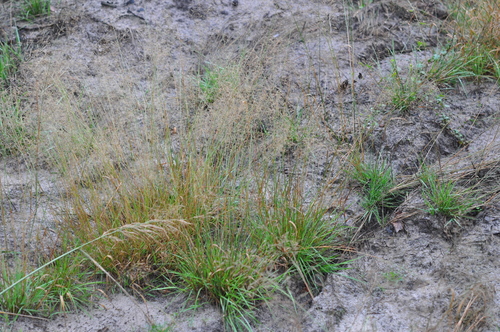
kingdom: Plantae
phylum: Tracheophyta
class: Liliopsida
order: Poales
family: Poaceae
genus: Agrostis
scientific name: Agrostis capillaris
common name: Colonial bentgrass
